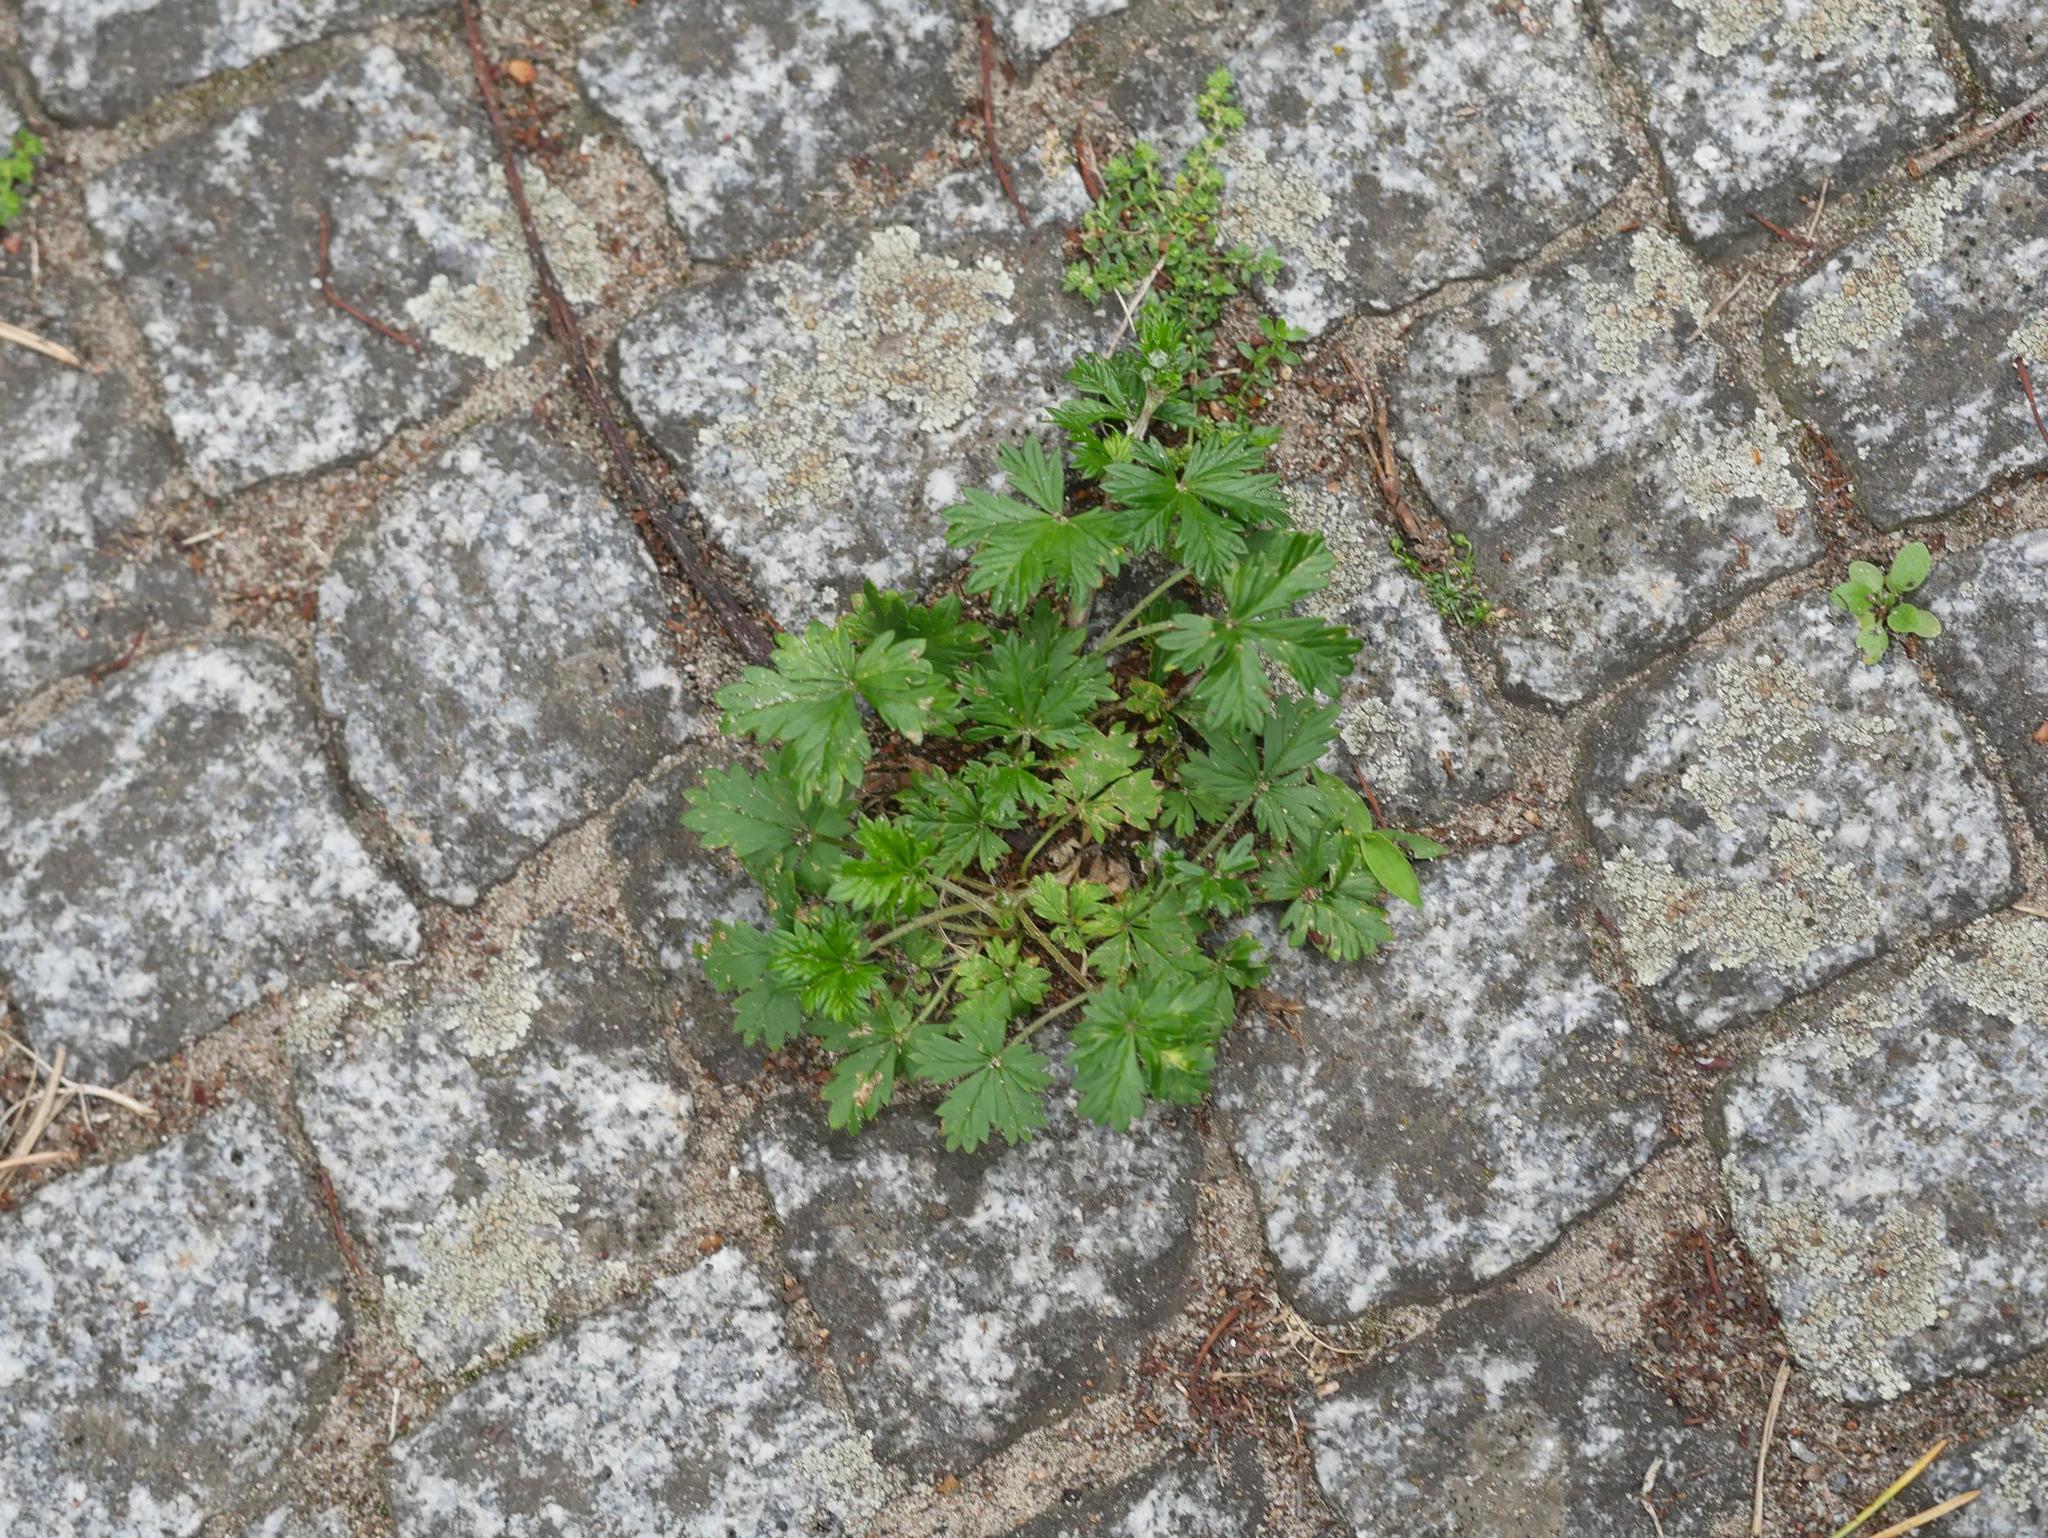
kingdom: Plantae
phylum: Tracheophyta
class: Magnoliopsida
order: Rosales
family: Rosaceae
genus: Potentilla
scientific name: Potentilla argentea
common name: Hoary cinquefoil
